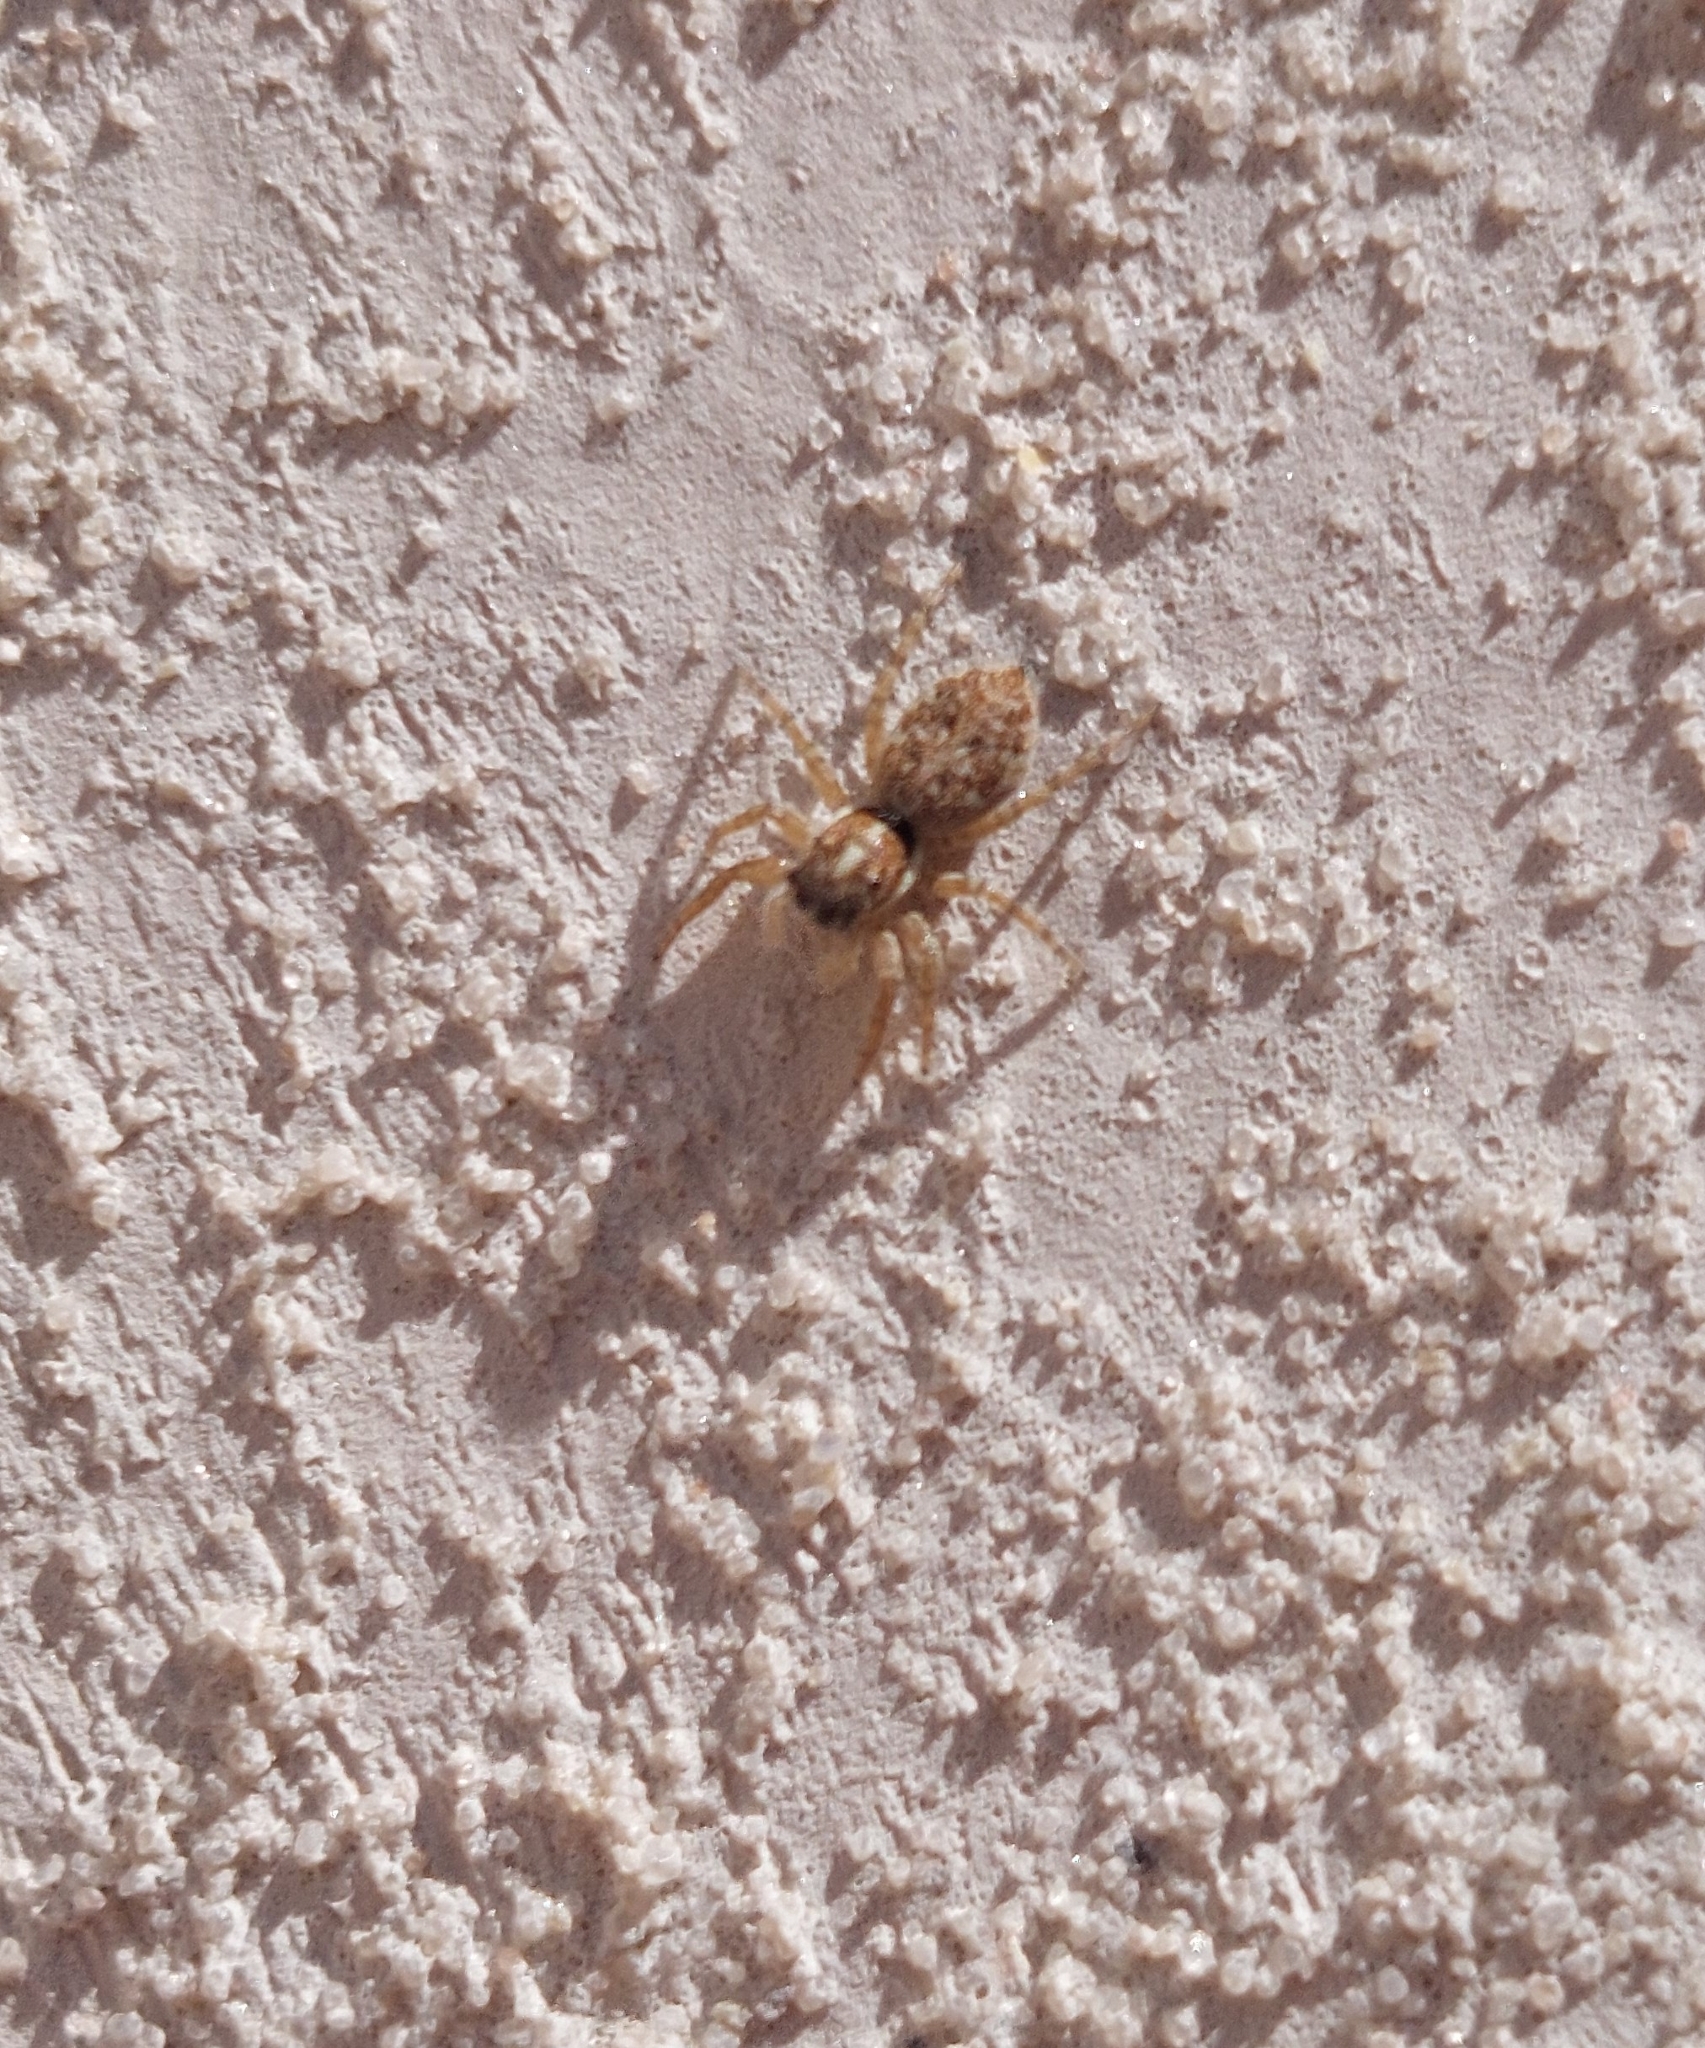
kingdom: Animalia
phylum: Arthropoda
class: Arachnida
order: Araneae
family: Salticidae
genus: Menemerus
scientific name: Menemerus semilimbatus
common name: Jumping spider
